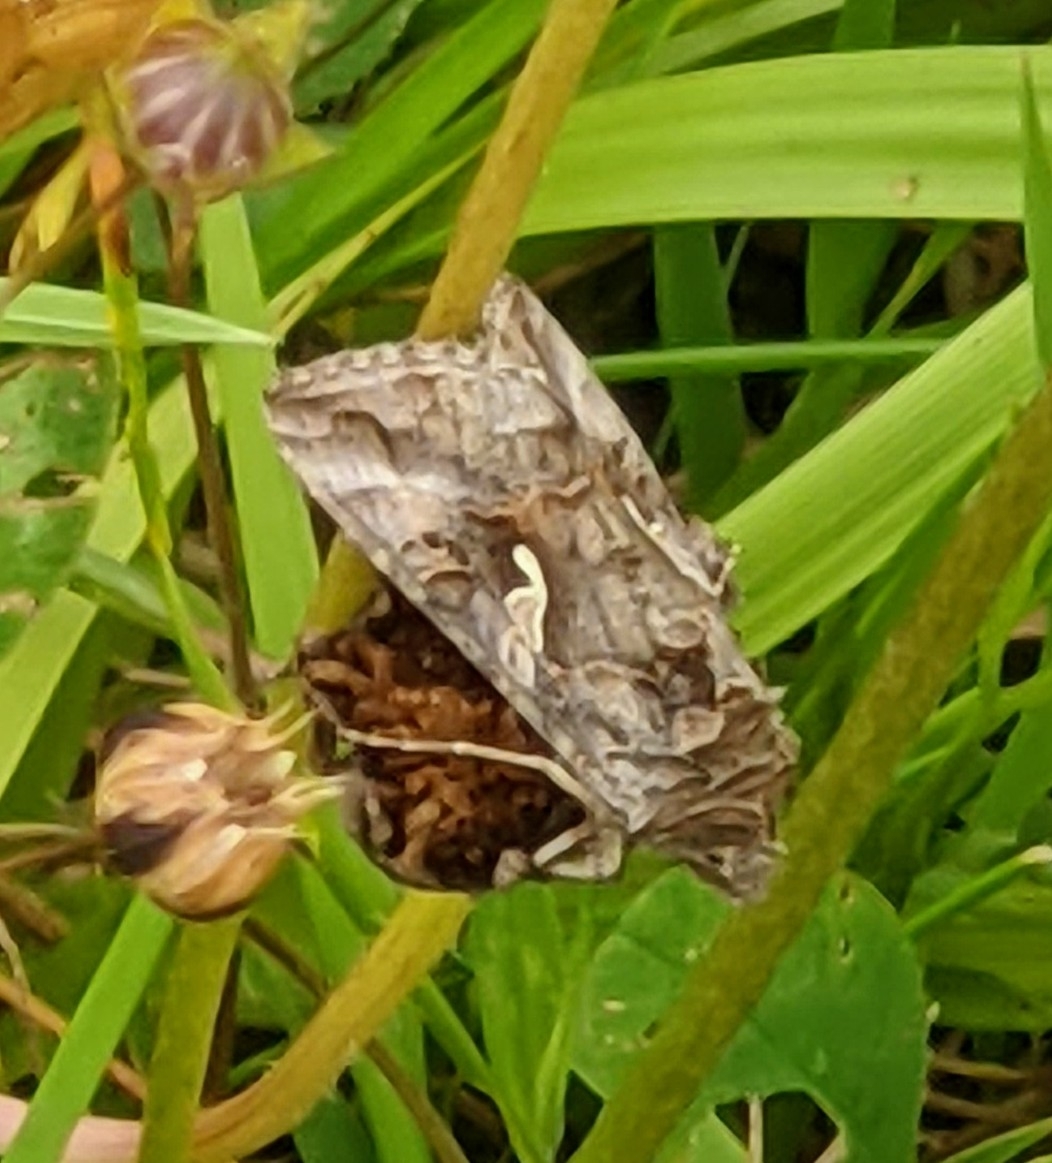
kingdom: Animalia
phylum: Arthropoda
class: Insecta
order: Lepidoptera
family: Noctuidae
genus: Autographa
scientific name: Autographa gamma
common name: Silver y
